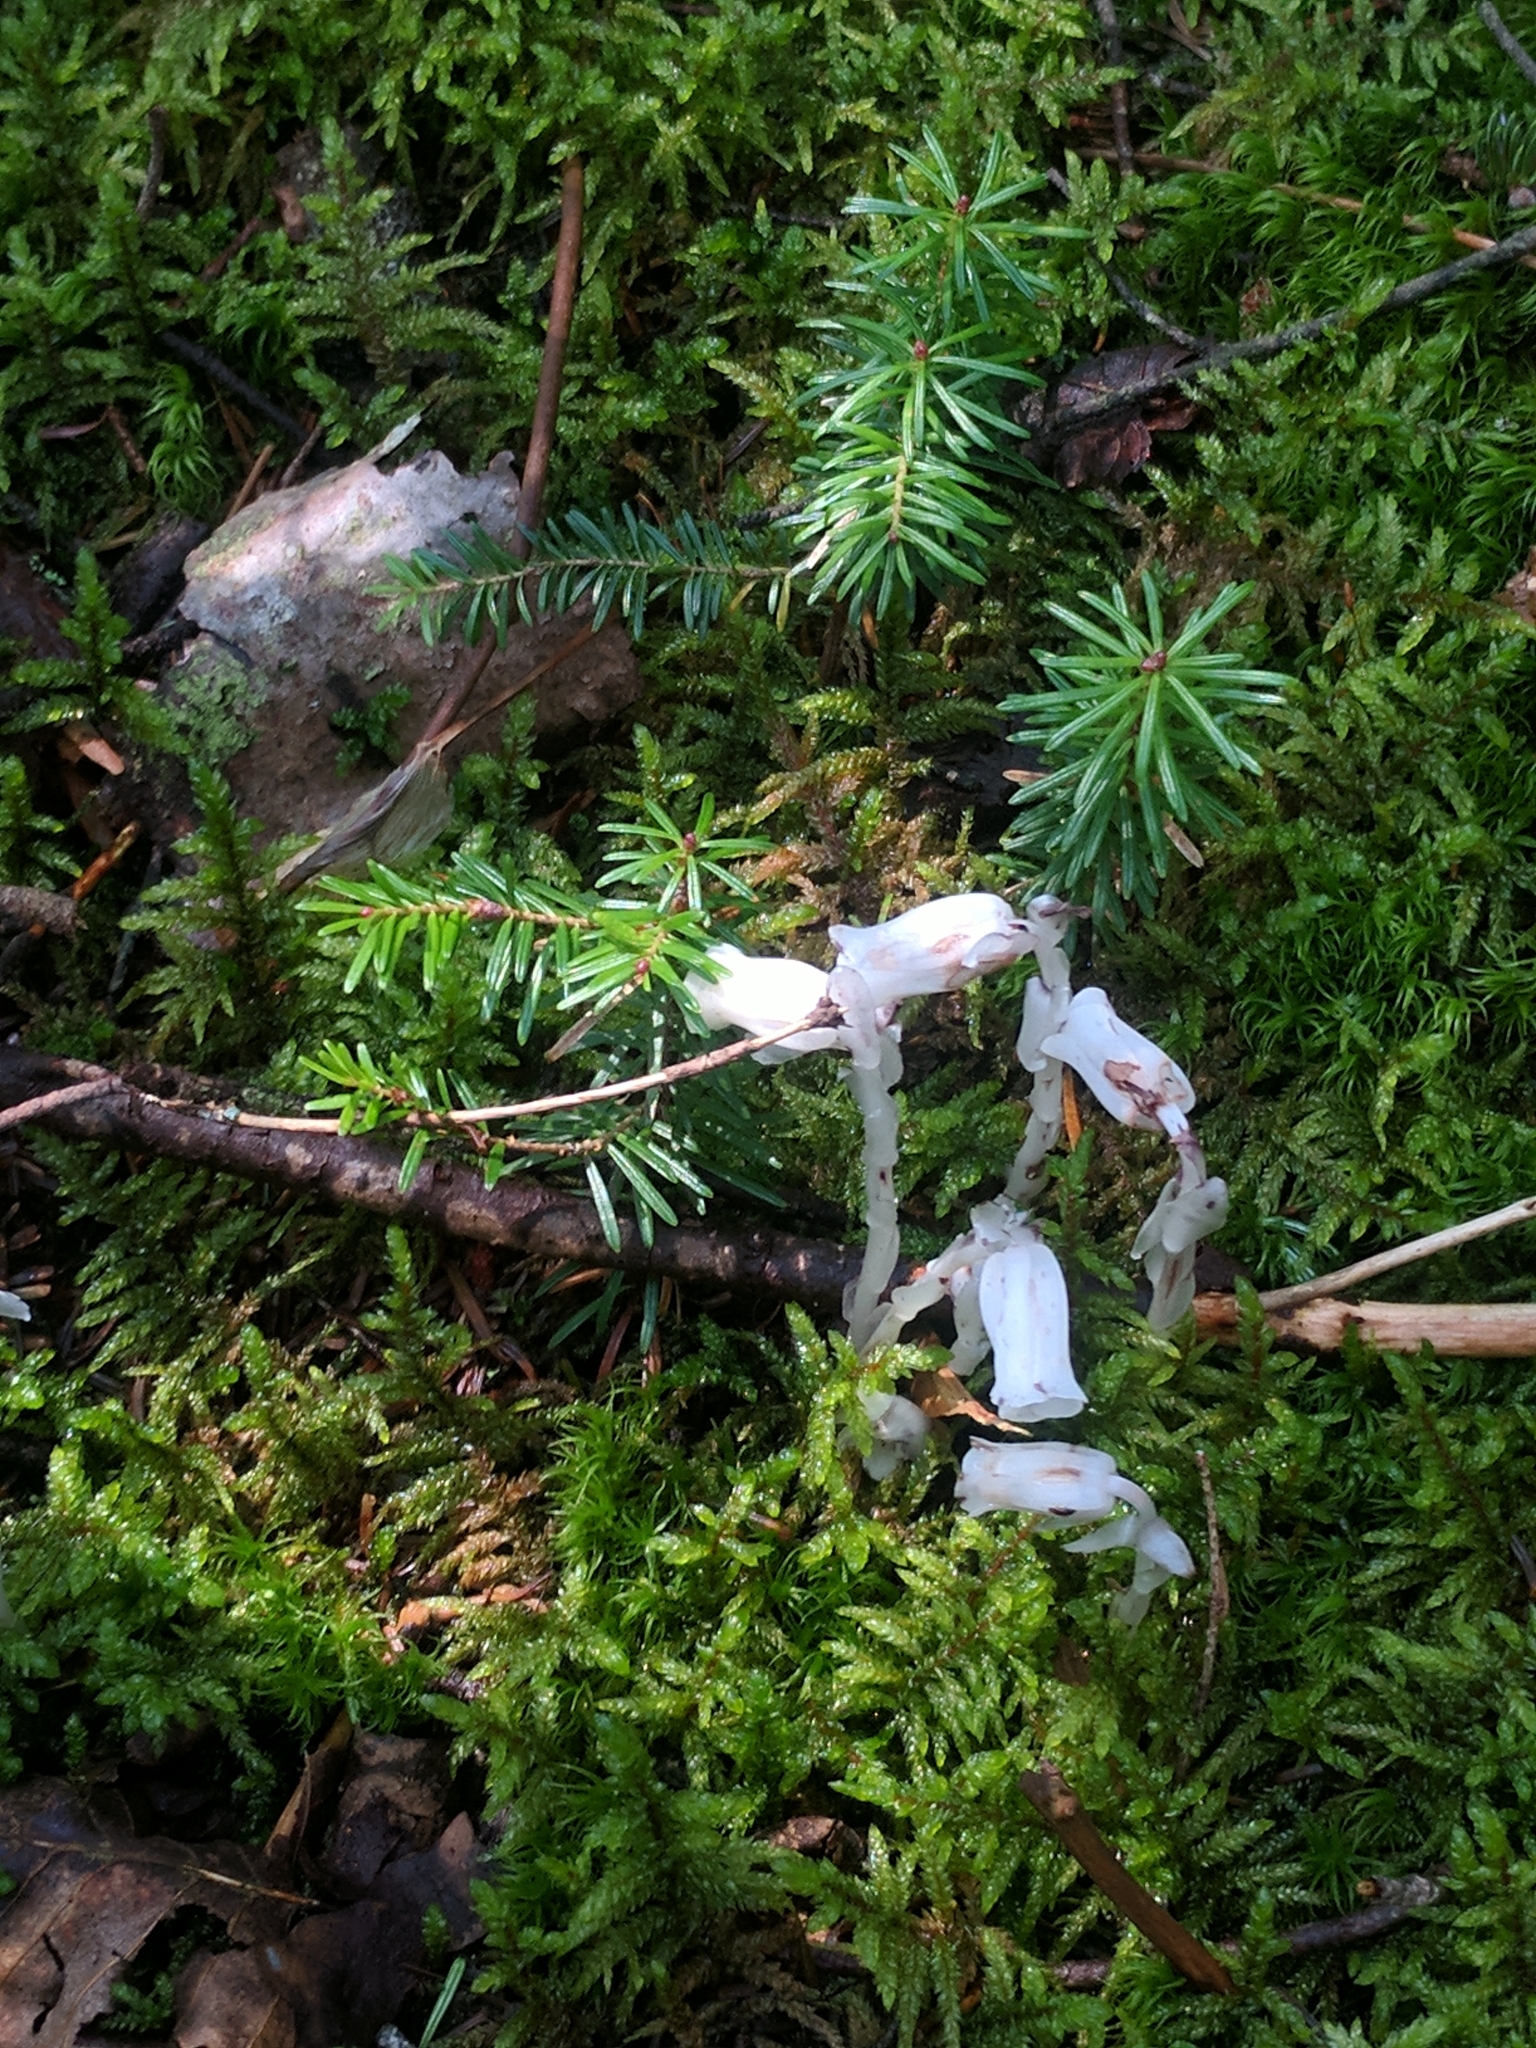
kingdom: Plantae
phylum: Tracheophyta
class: Magnoliopsida
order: Ericales
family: Ericaceae
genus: Monotropa
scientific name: Monotropa uniflora
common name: Convulsion root
